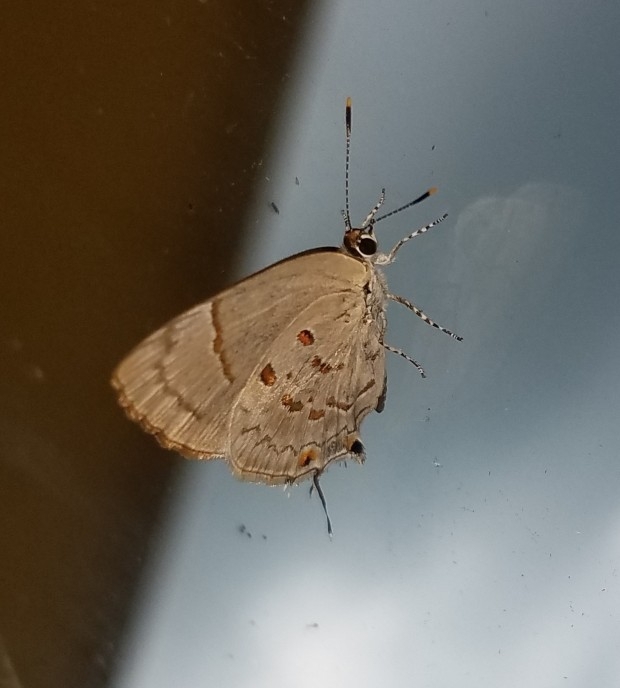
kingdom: Animalia
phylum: Arthropoda
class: Insecta
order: Lepidoptera
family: Lycaenidae
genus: Tmolus
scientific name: Tmolus echion
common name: Red-spotted hairstreak
